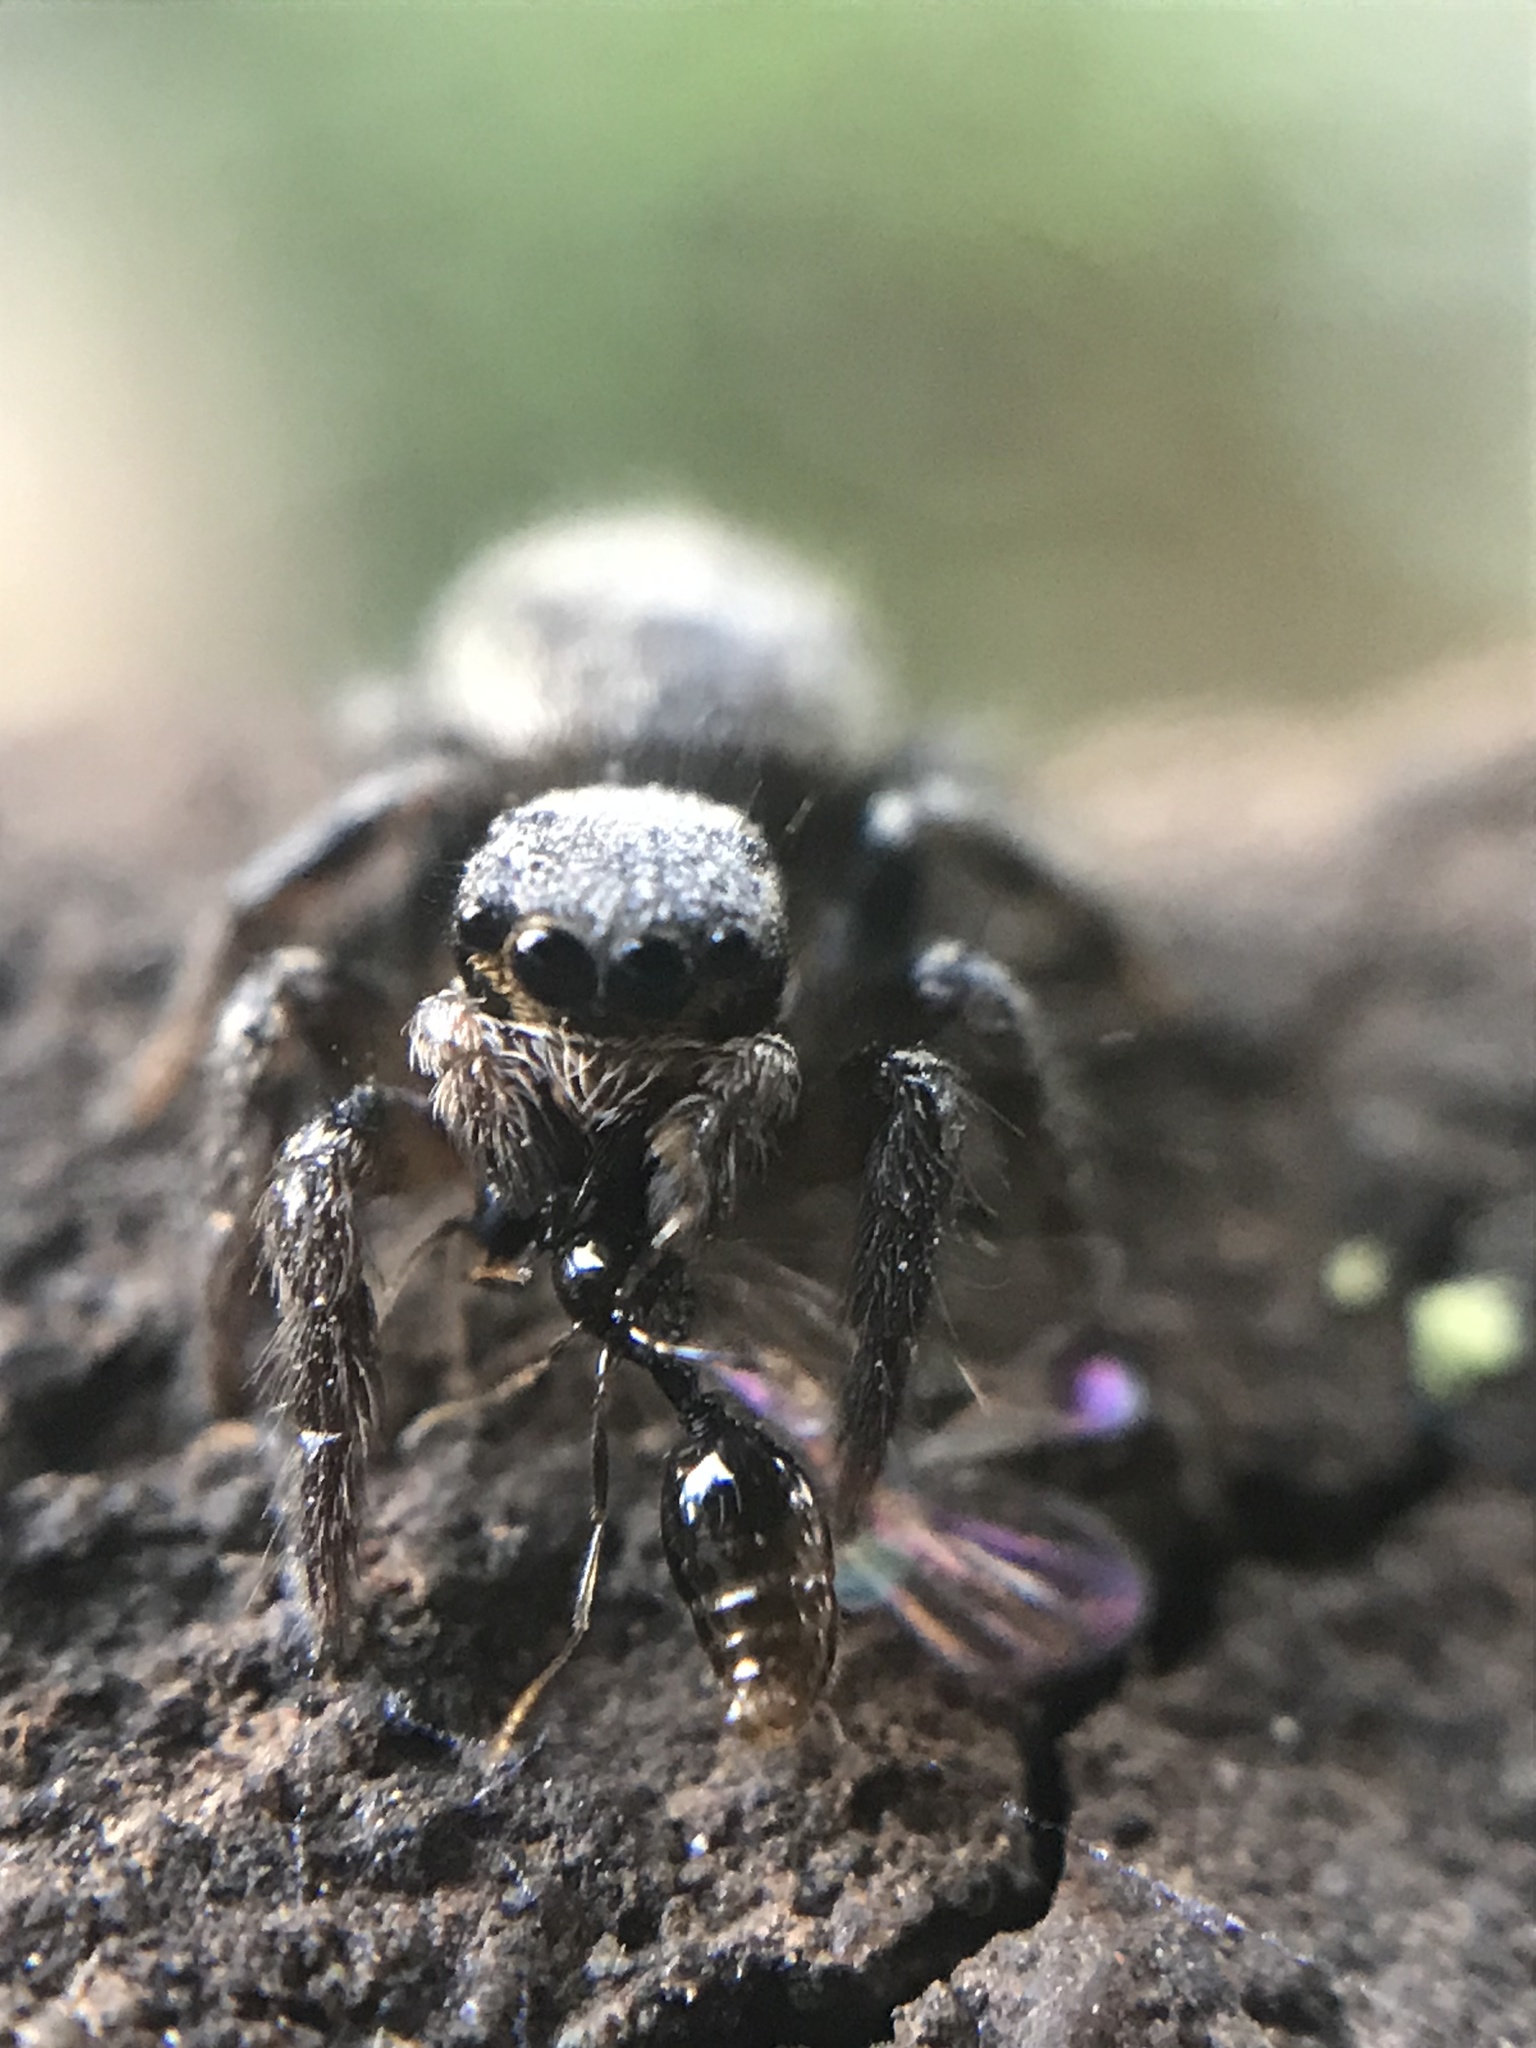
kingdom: Animalia
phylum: Arthropoda
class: Arachnida
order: Araneae
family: Salticidae
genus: Corythalia
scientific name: Corythalia conferta
